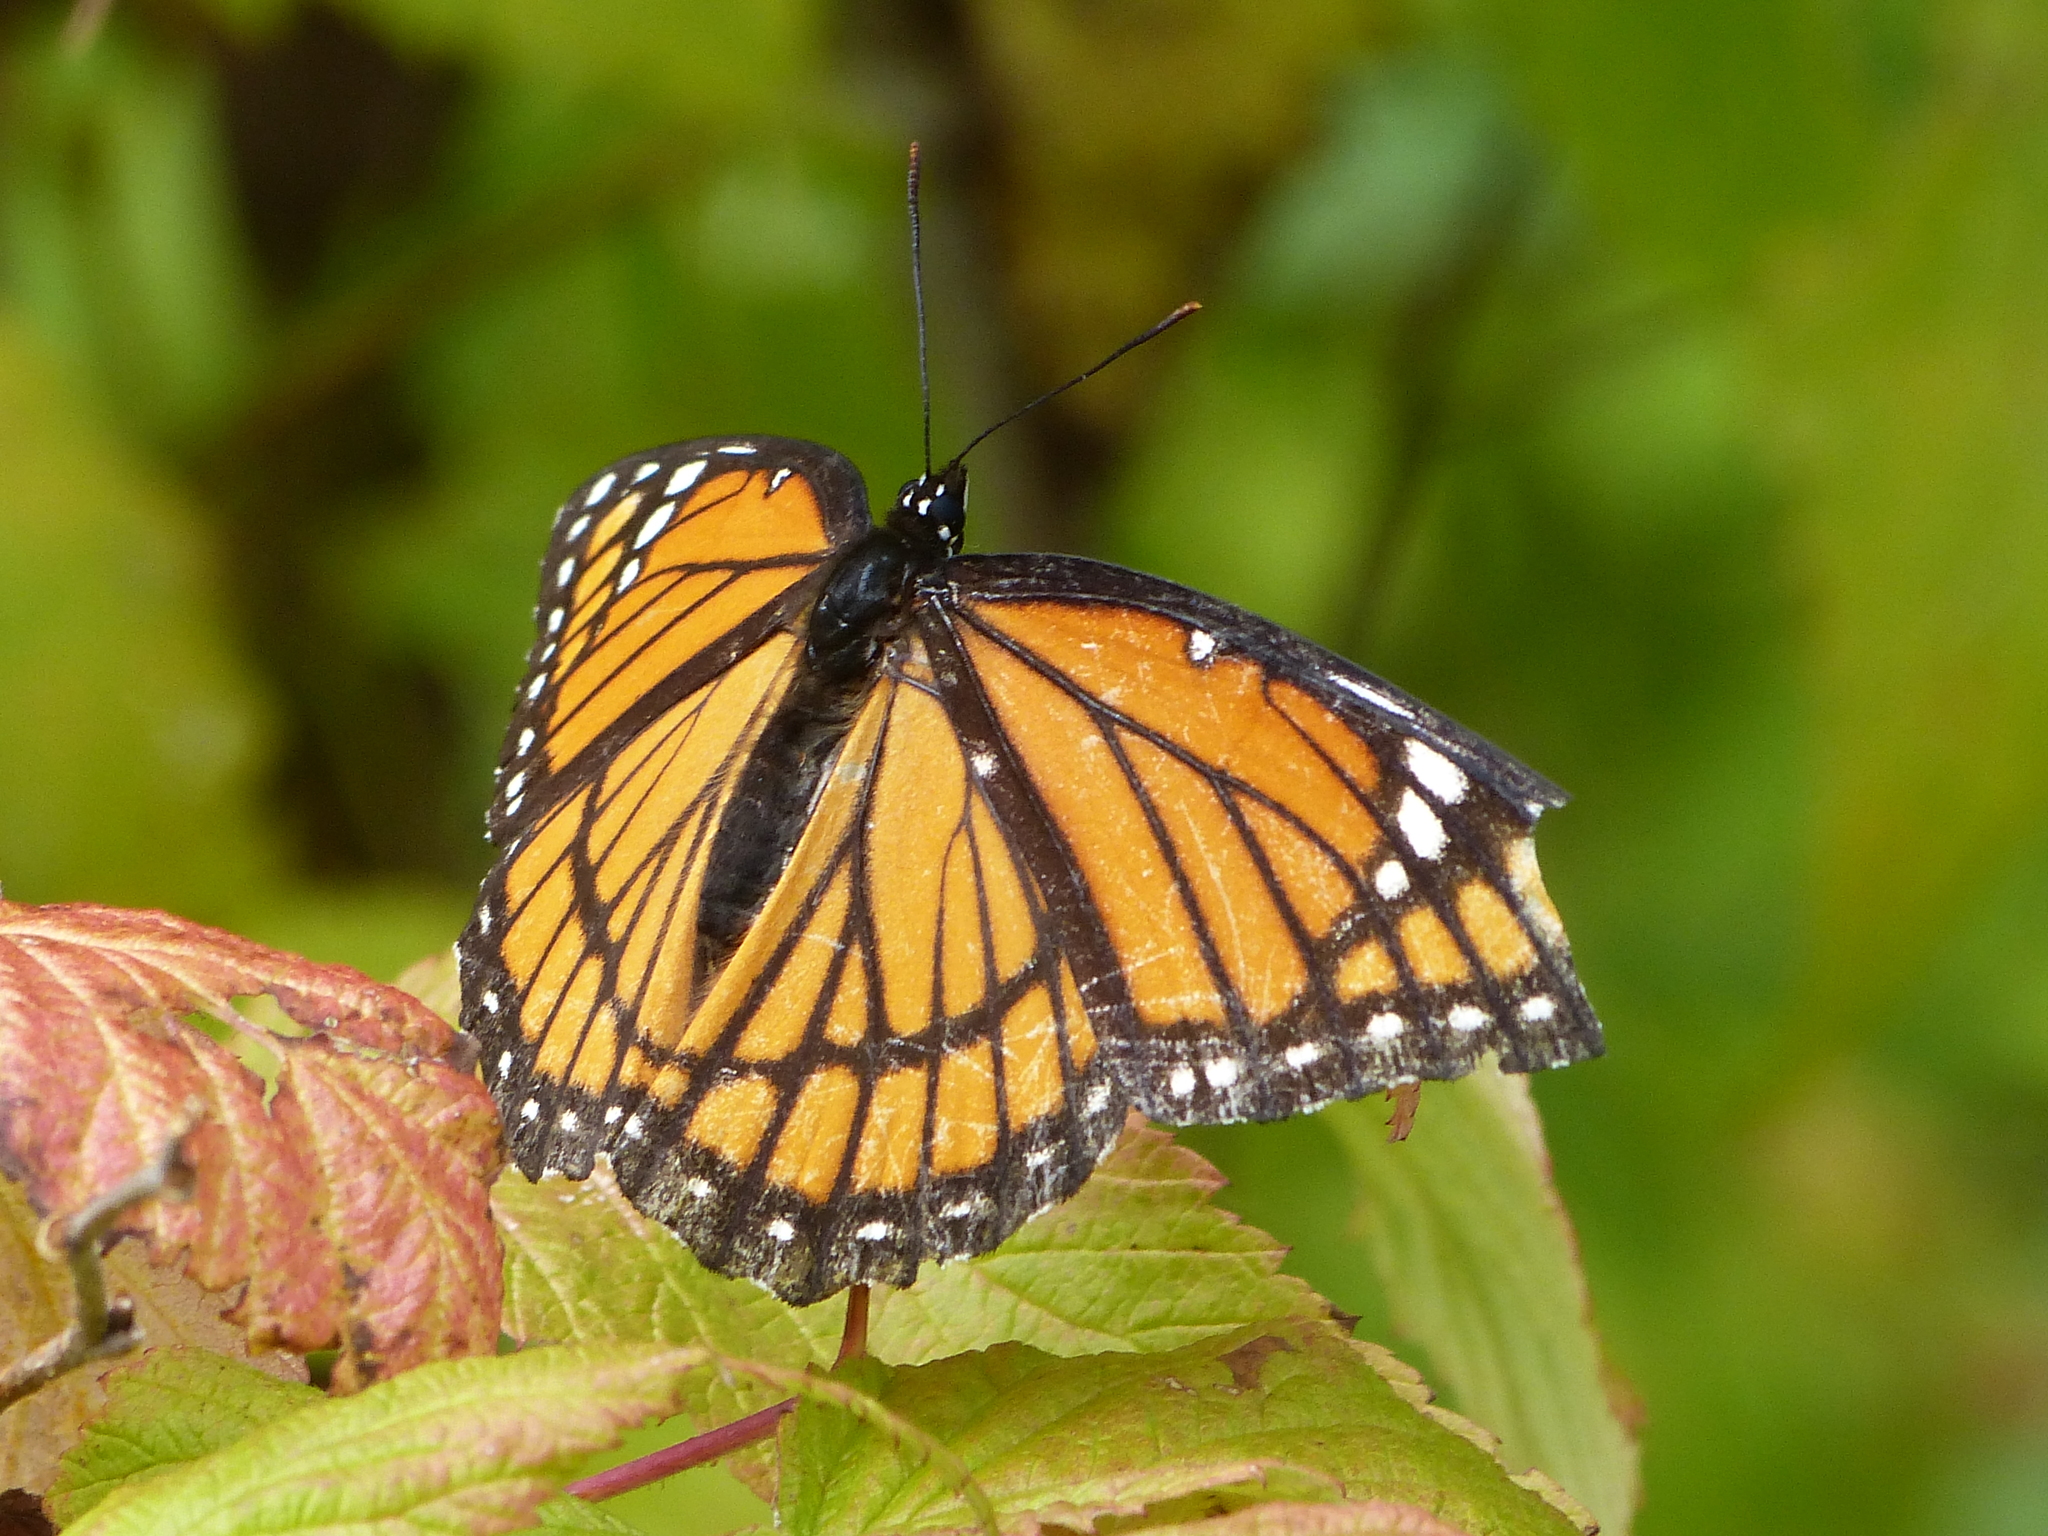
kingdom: Animalia
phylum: Arthropoda
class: Insecta
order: Lepidoptera
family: Nymphalidae
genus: Limenitis
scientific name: Limenitis archippus
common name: Viceroy
